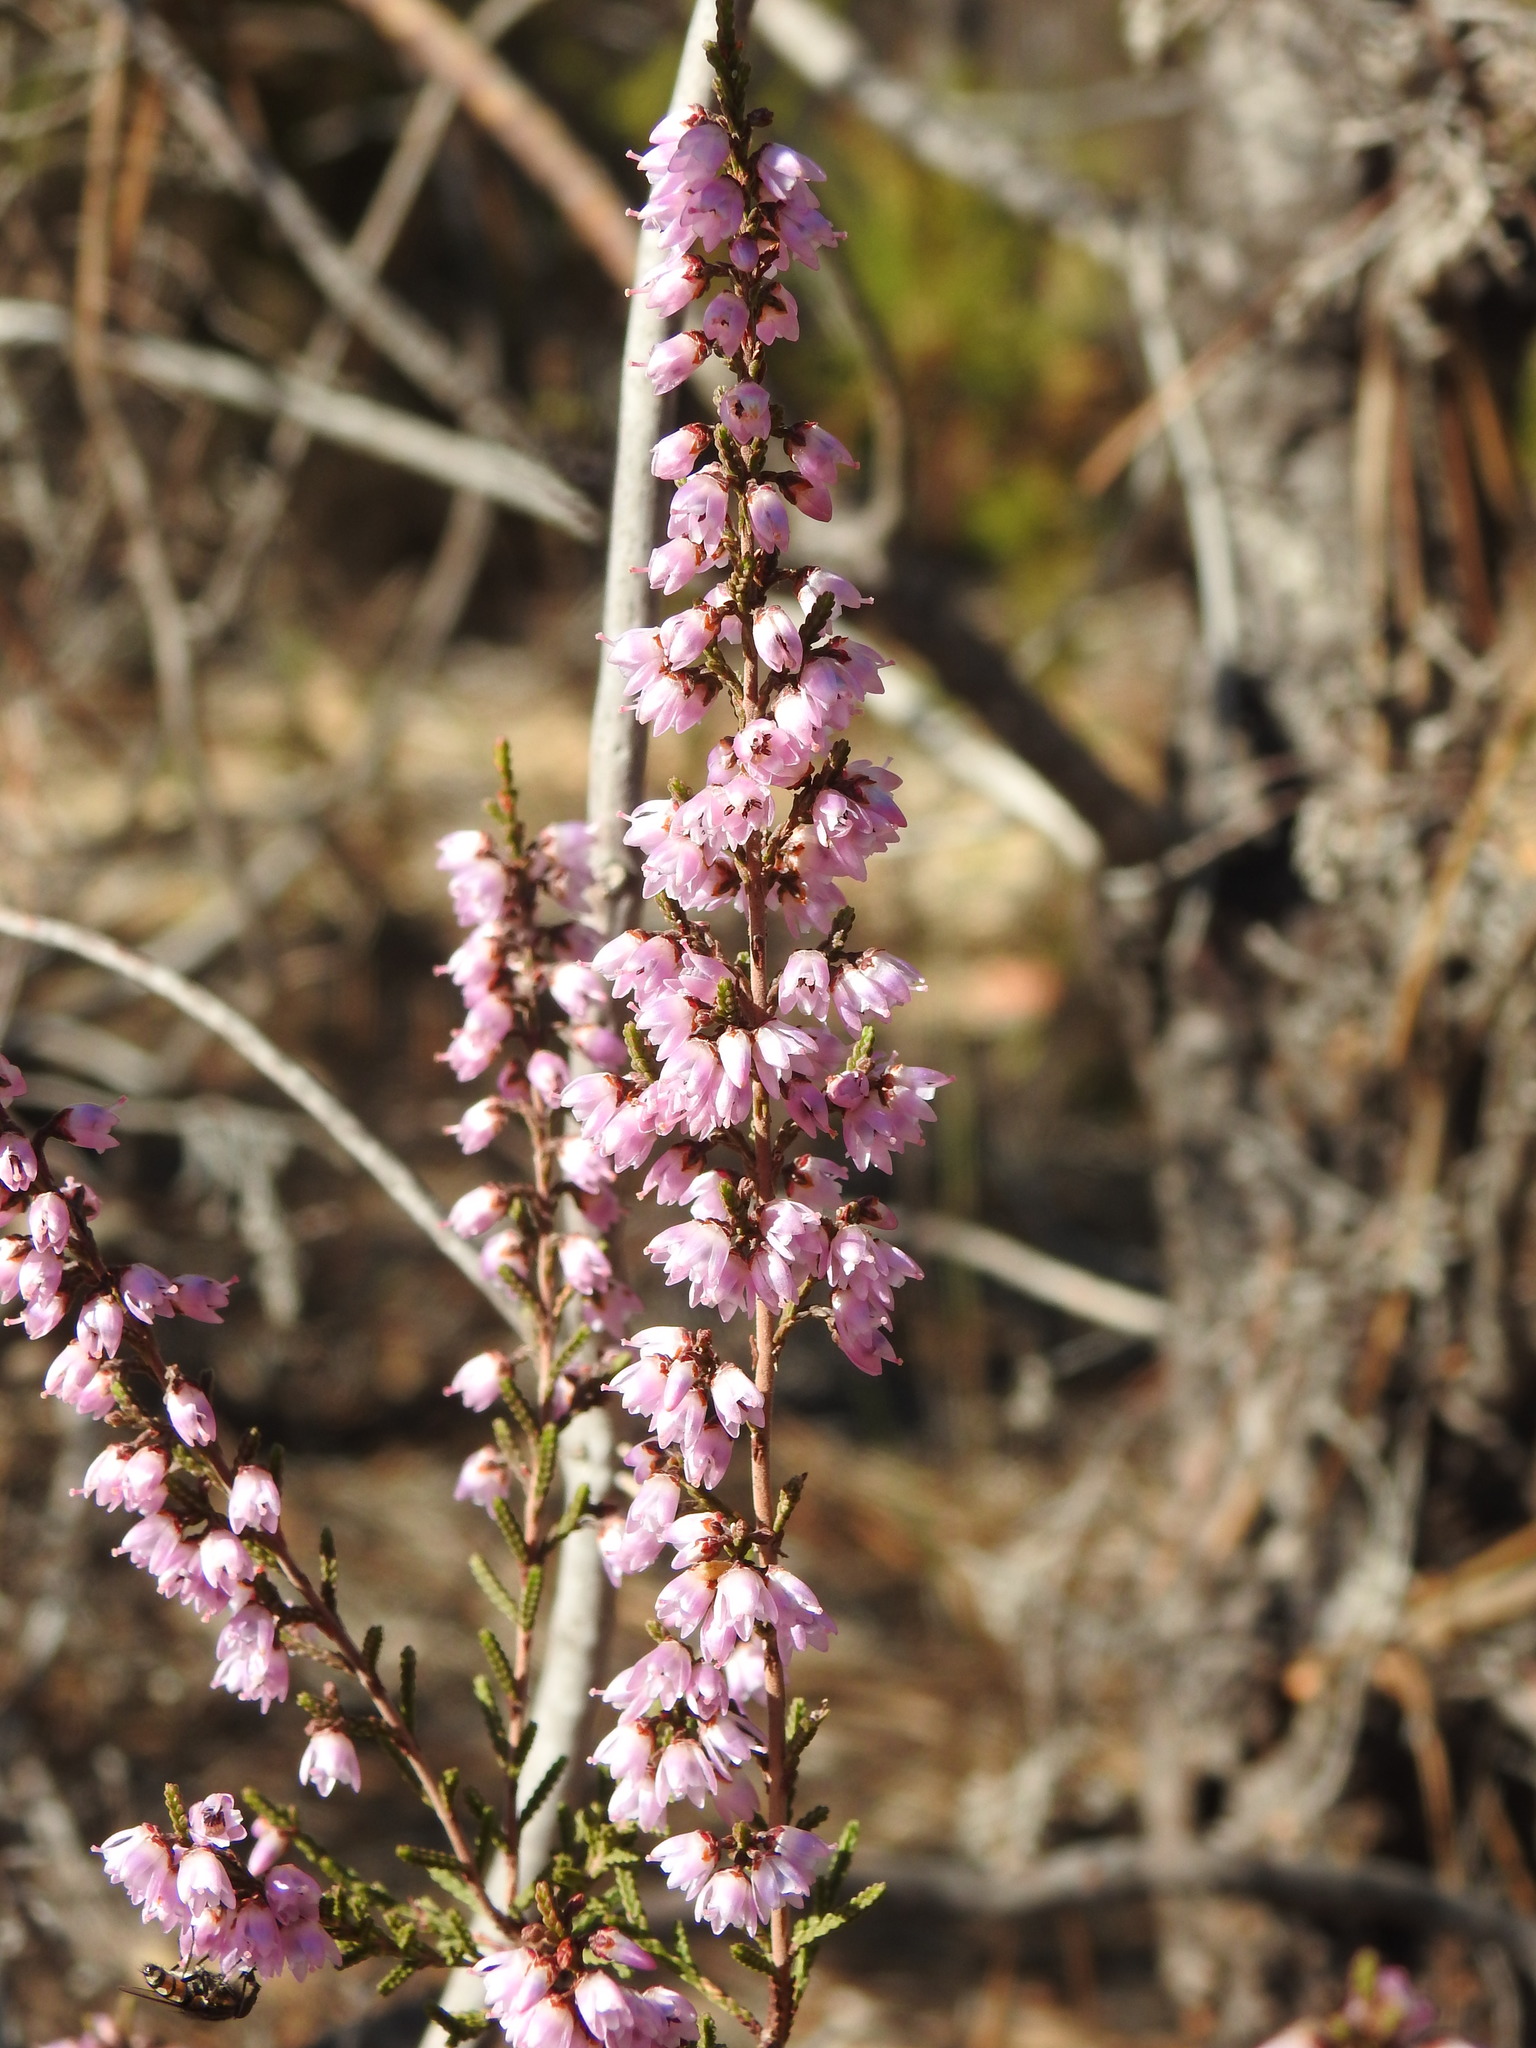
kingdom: Plantae
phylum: Tracheophyta
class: Magnoliopsida
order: Ericales
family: Ericaceae
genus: Calluna
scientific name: Calluna vulgaris
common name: Heather
